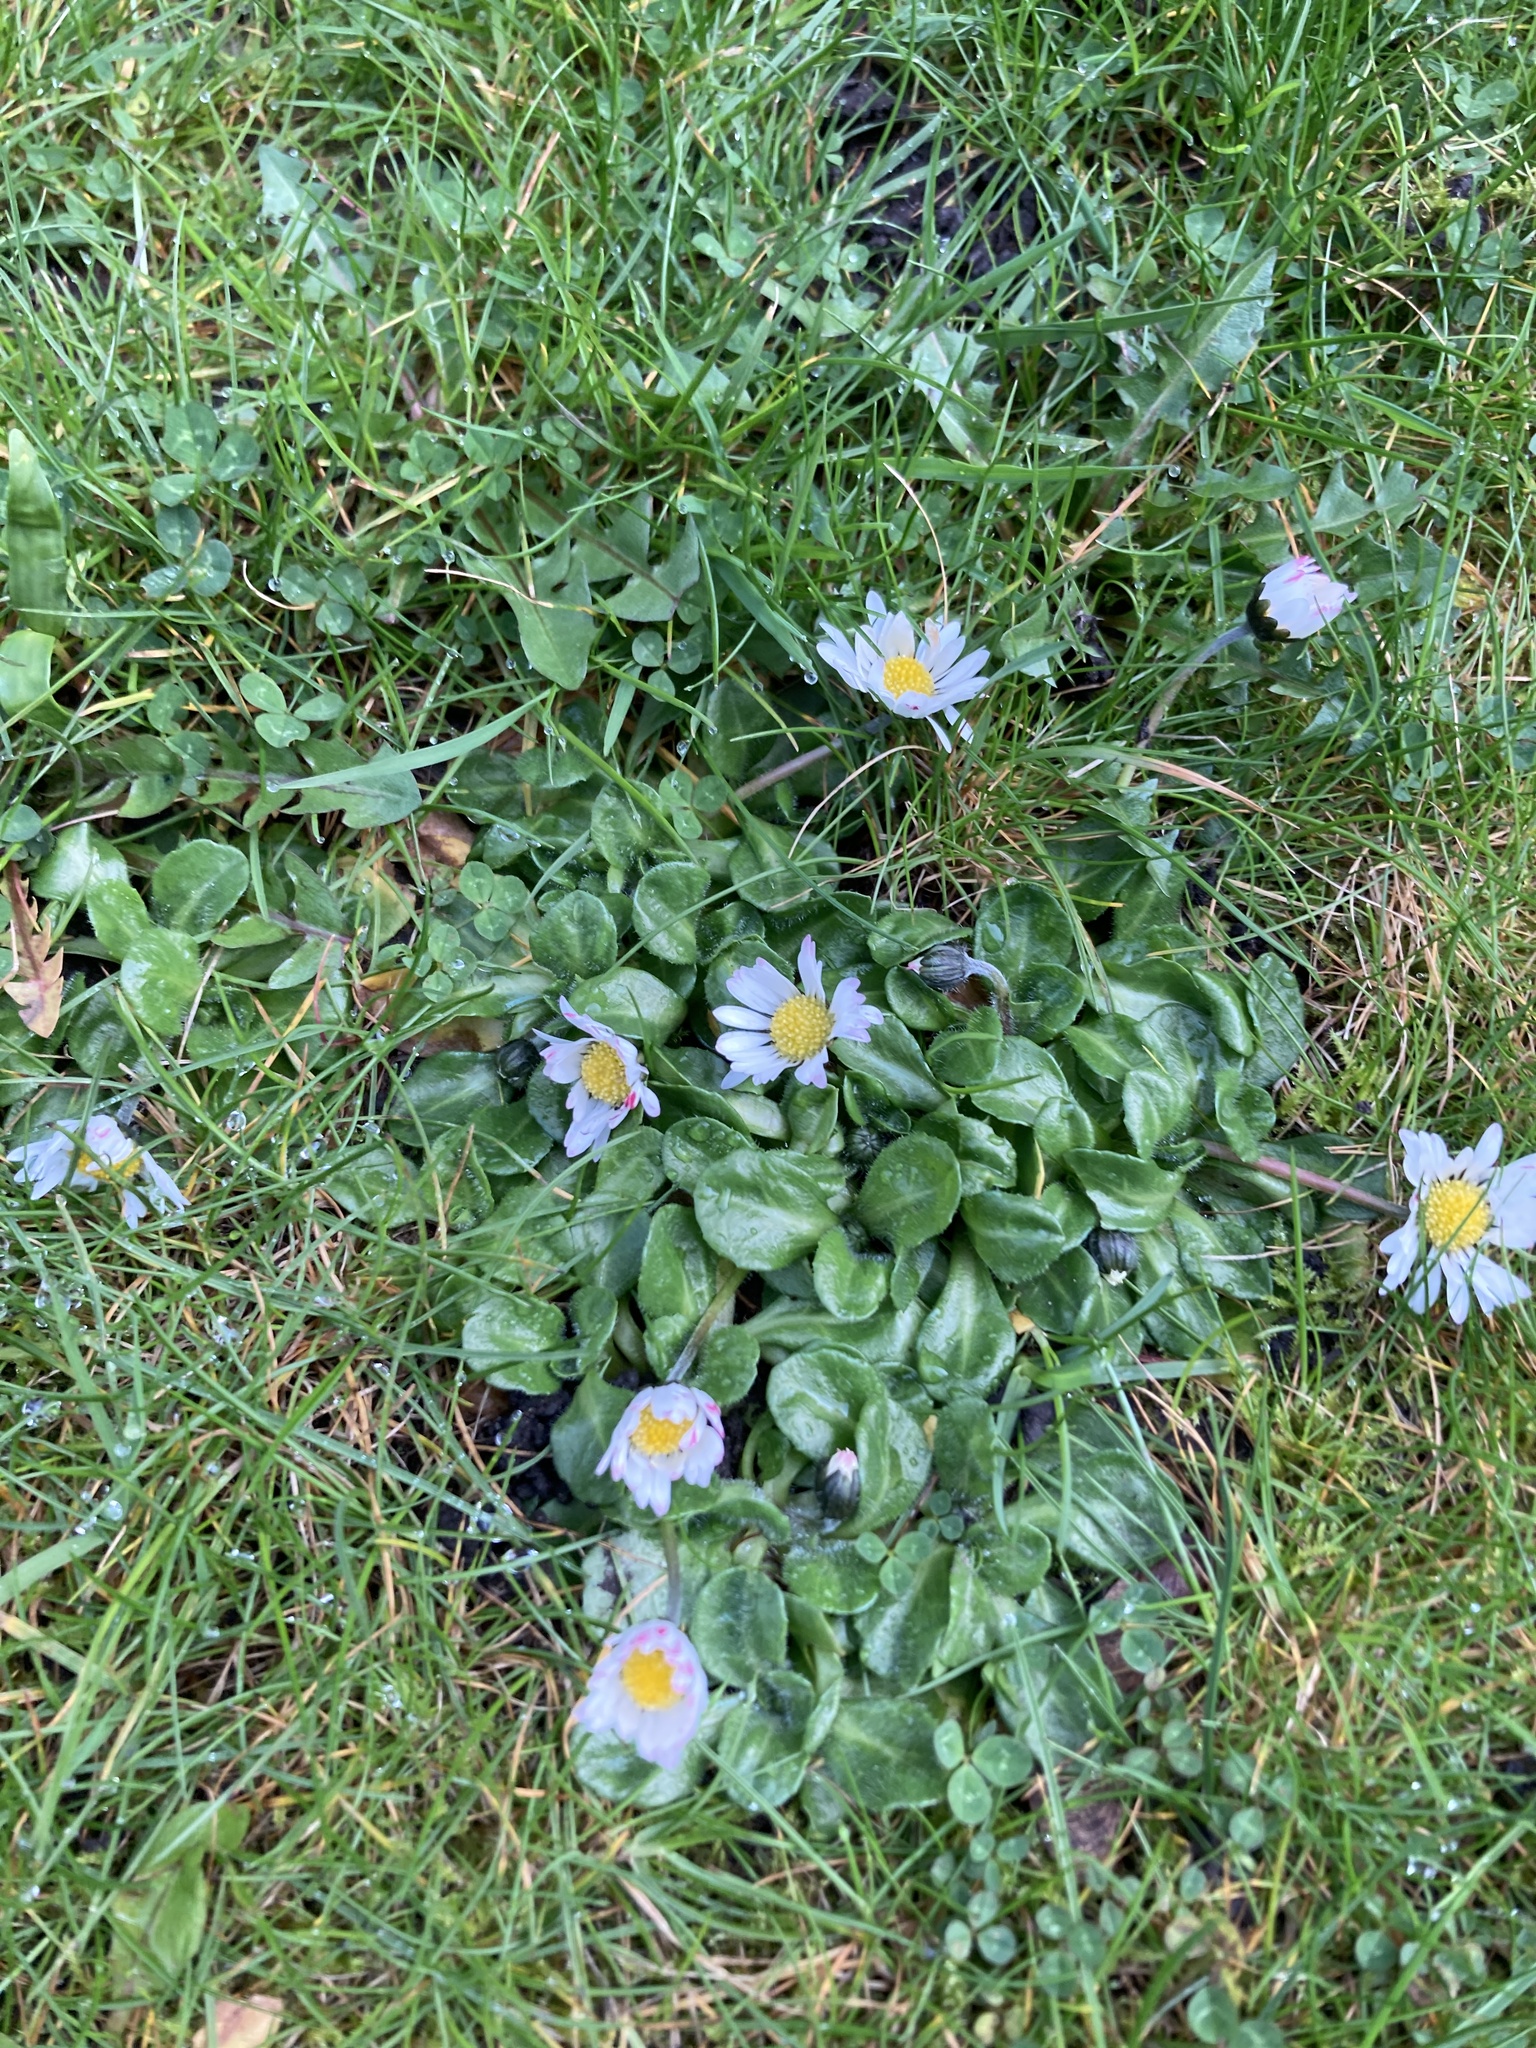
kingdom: Plantae
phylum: Tracheophyta
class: Magnoliopsida
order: Asterales
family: Asteraceae
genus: Bellis
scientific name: Bellis perennis
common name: Lawndaisy
